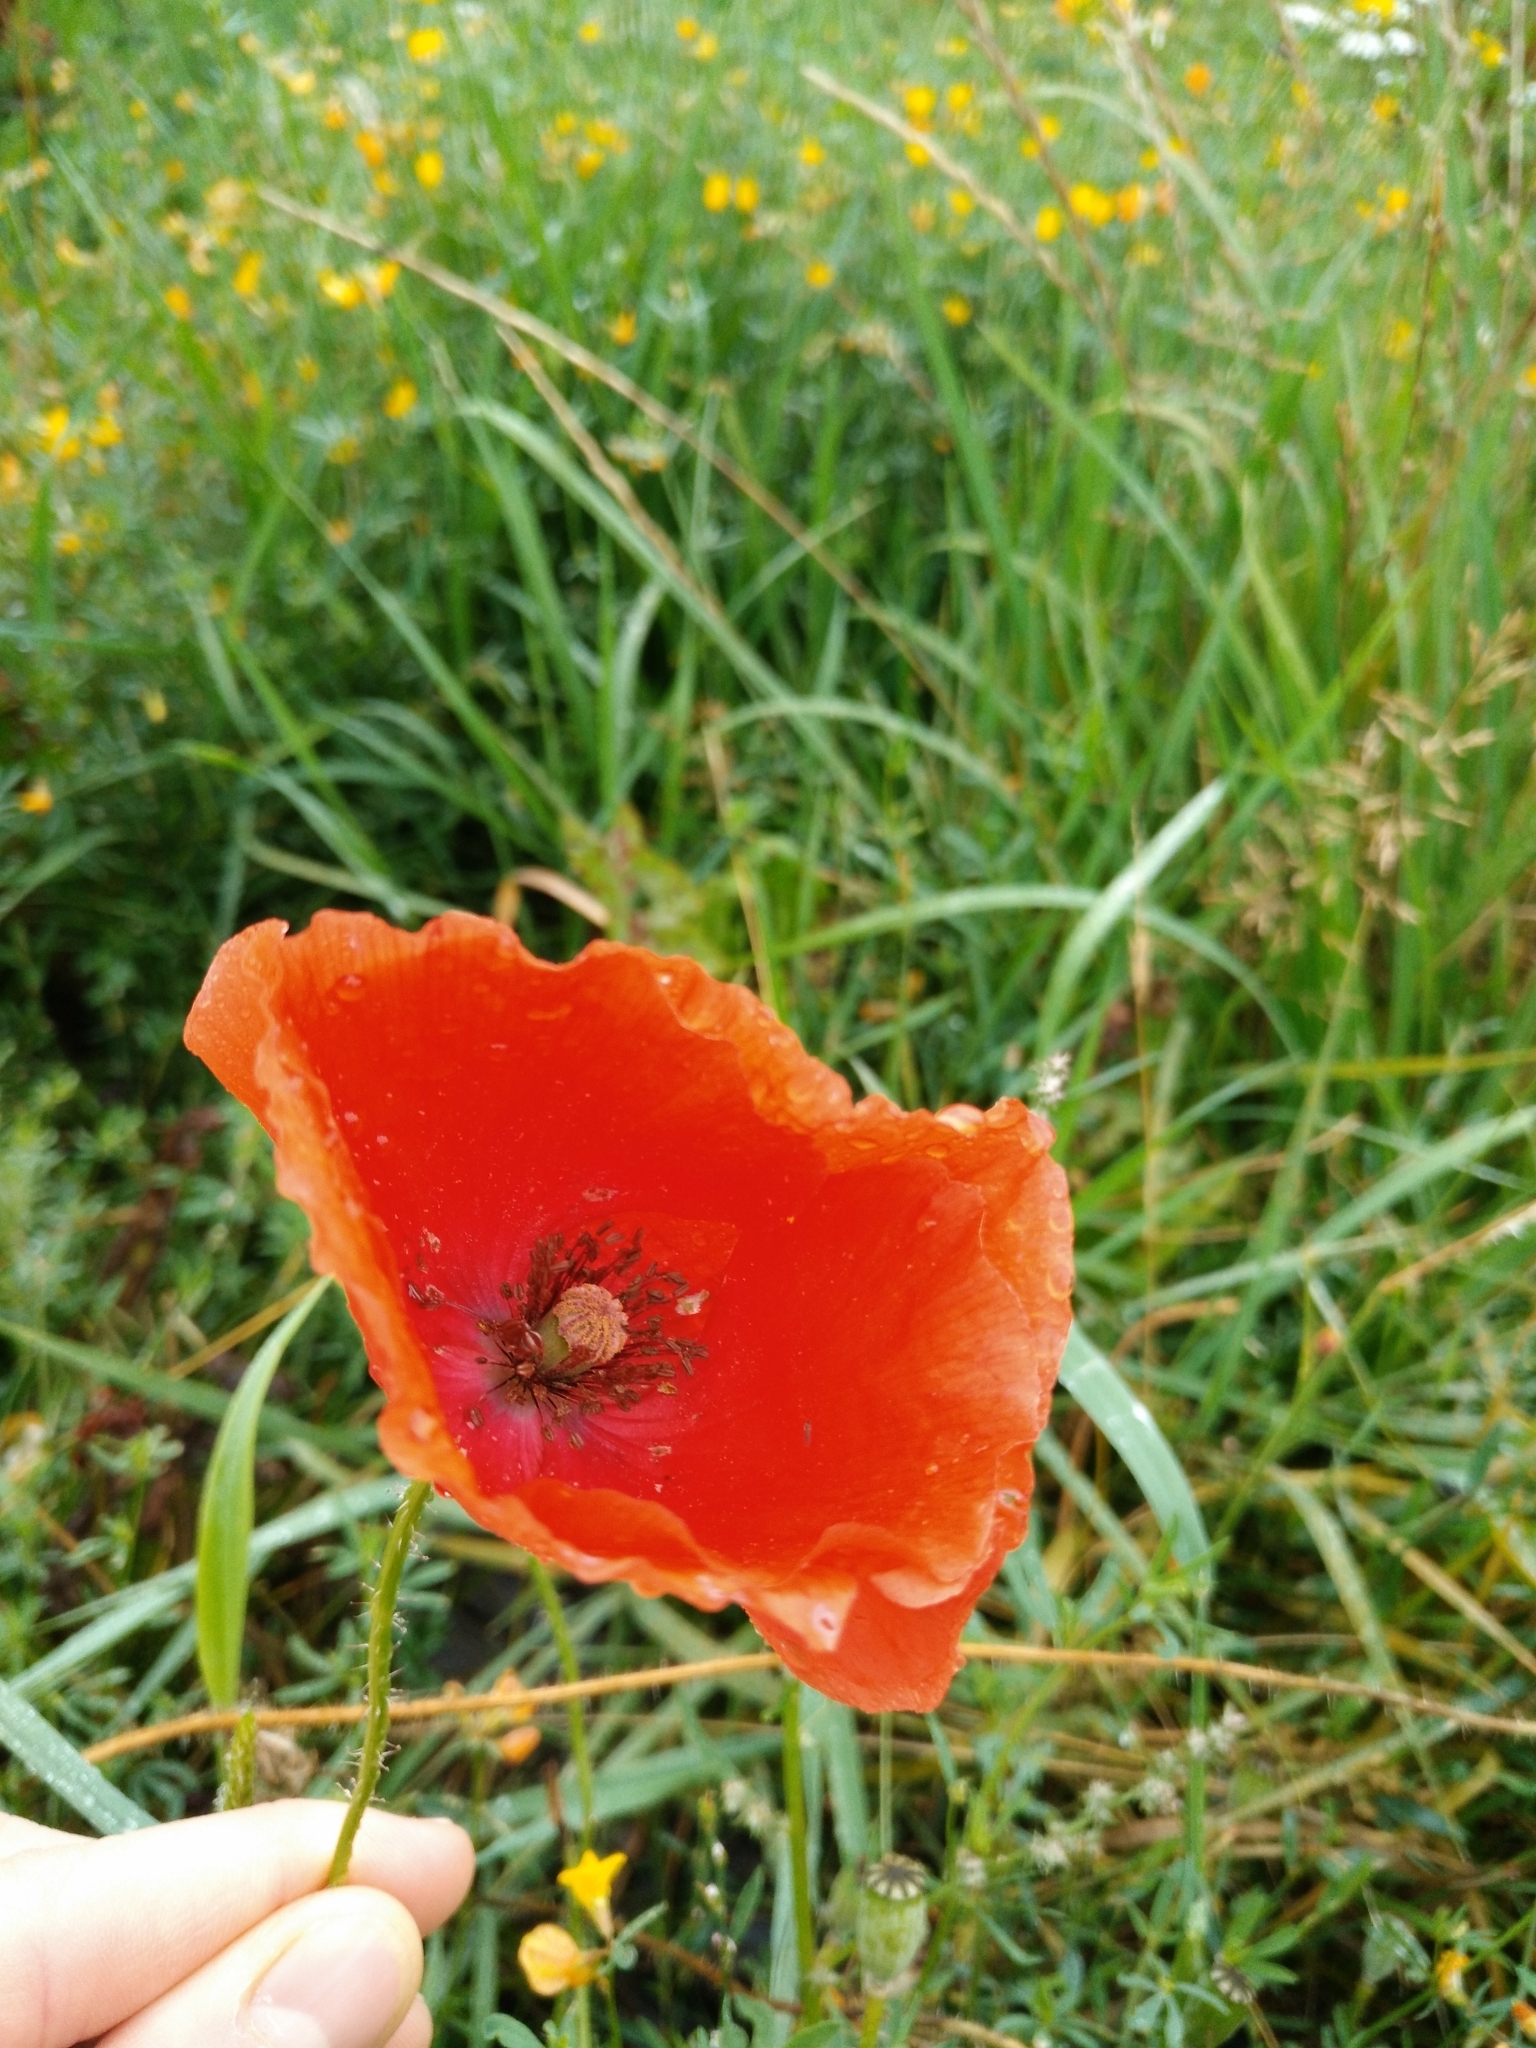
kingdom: Plantae
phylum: Tracheophyta
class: Magnoliopsida
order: Ranunculales
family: Papaveraceae
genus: Papaver
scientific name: Papaver rhoeas
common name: Corn poppy
